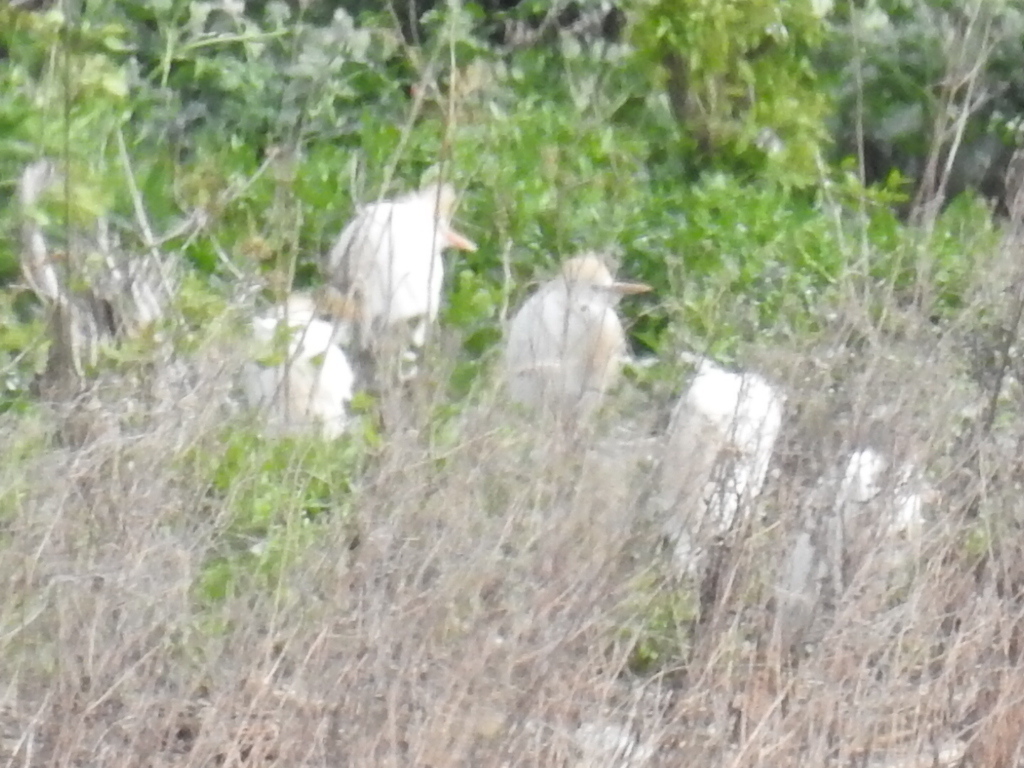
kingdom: Animalia
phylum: Chordata
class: Aves
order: Pelecaniformes
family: Ardeidae
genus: Bubulcus
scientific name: Bubulcus ibis
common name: Cattle egret
